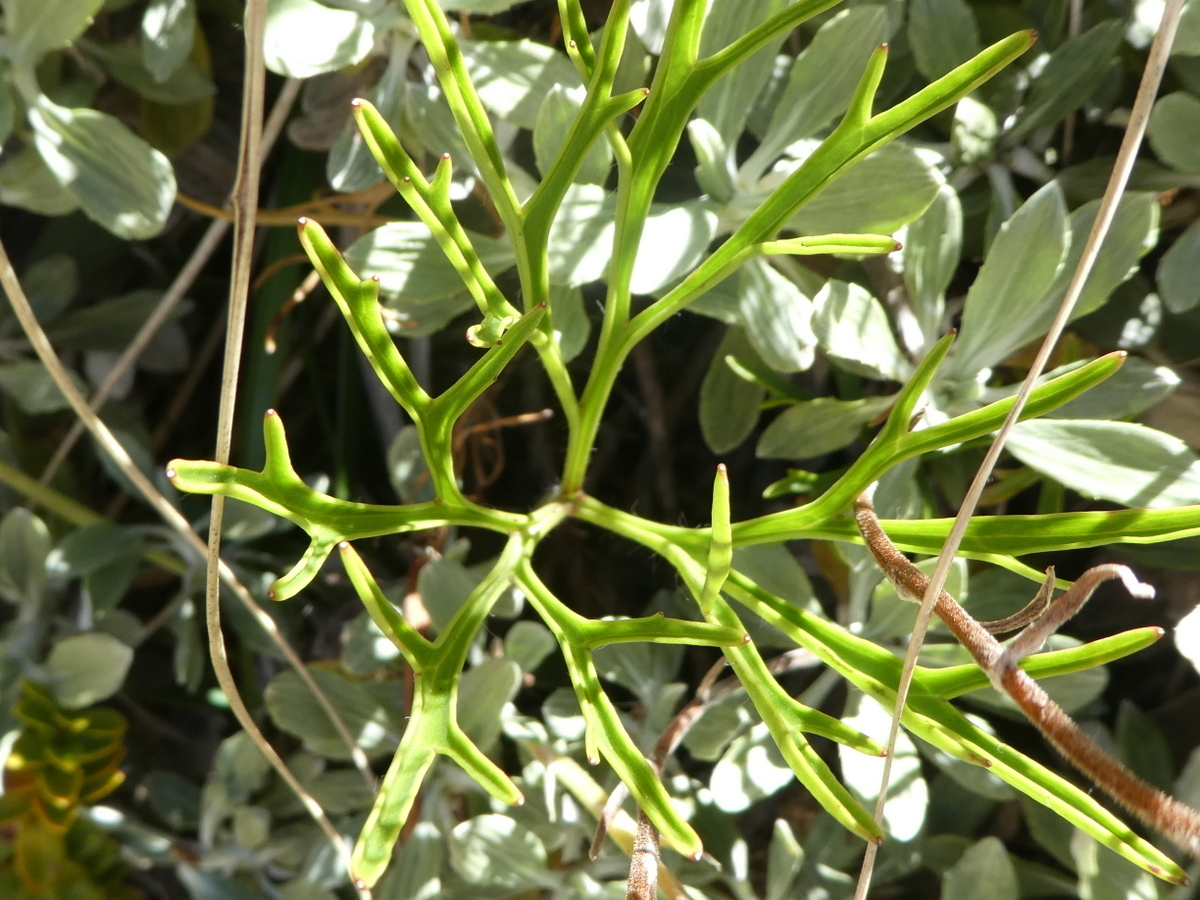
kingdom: Plantae
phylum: Tracheophyta
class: Magnoliopsida
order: Apiales
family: Apiaceae
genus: Anisotome
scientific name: Anisotome filifolia
